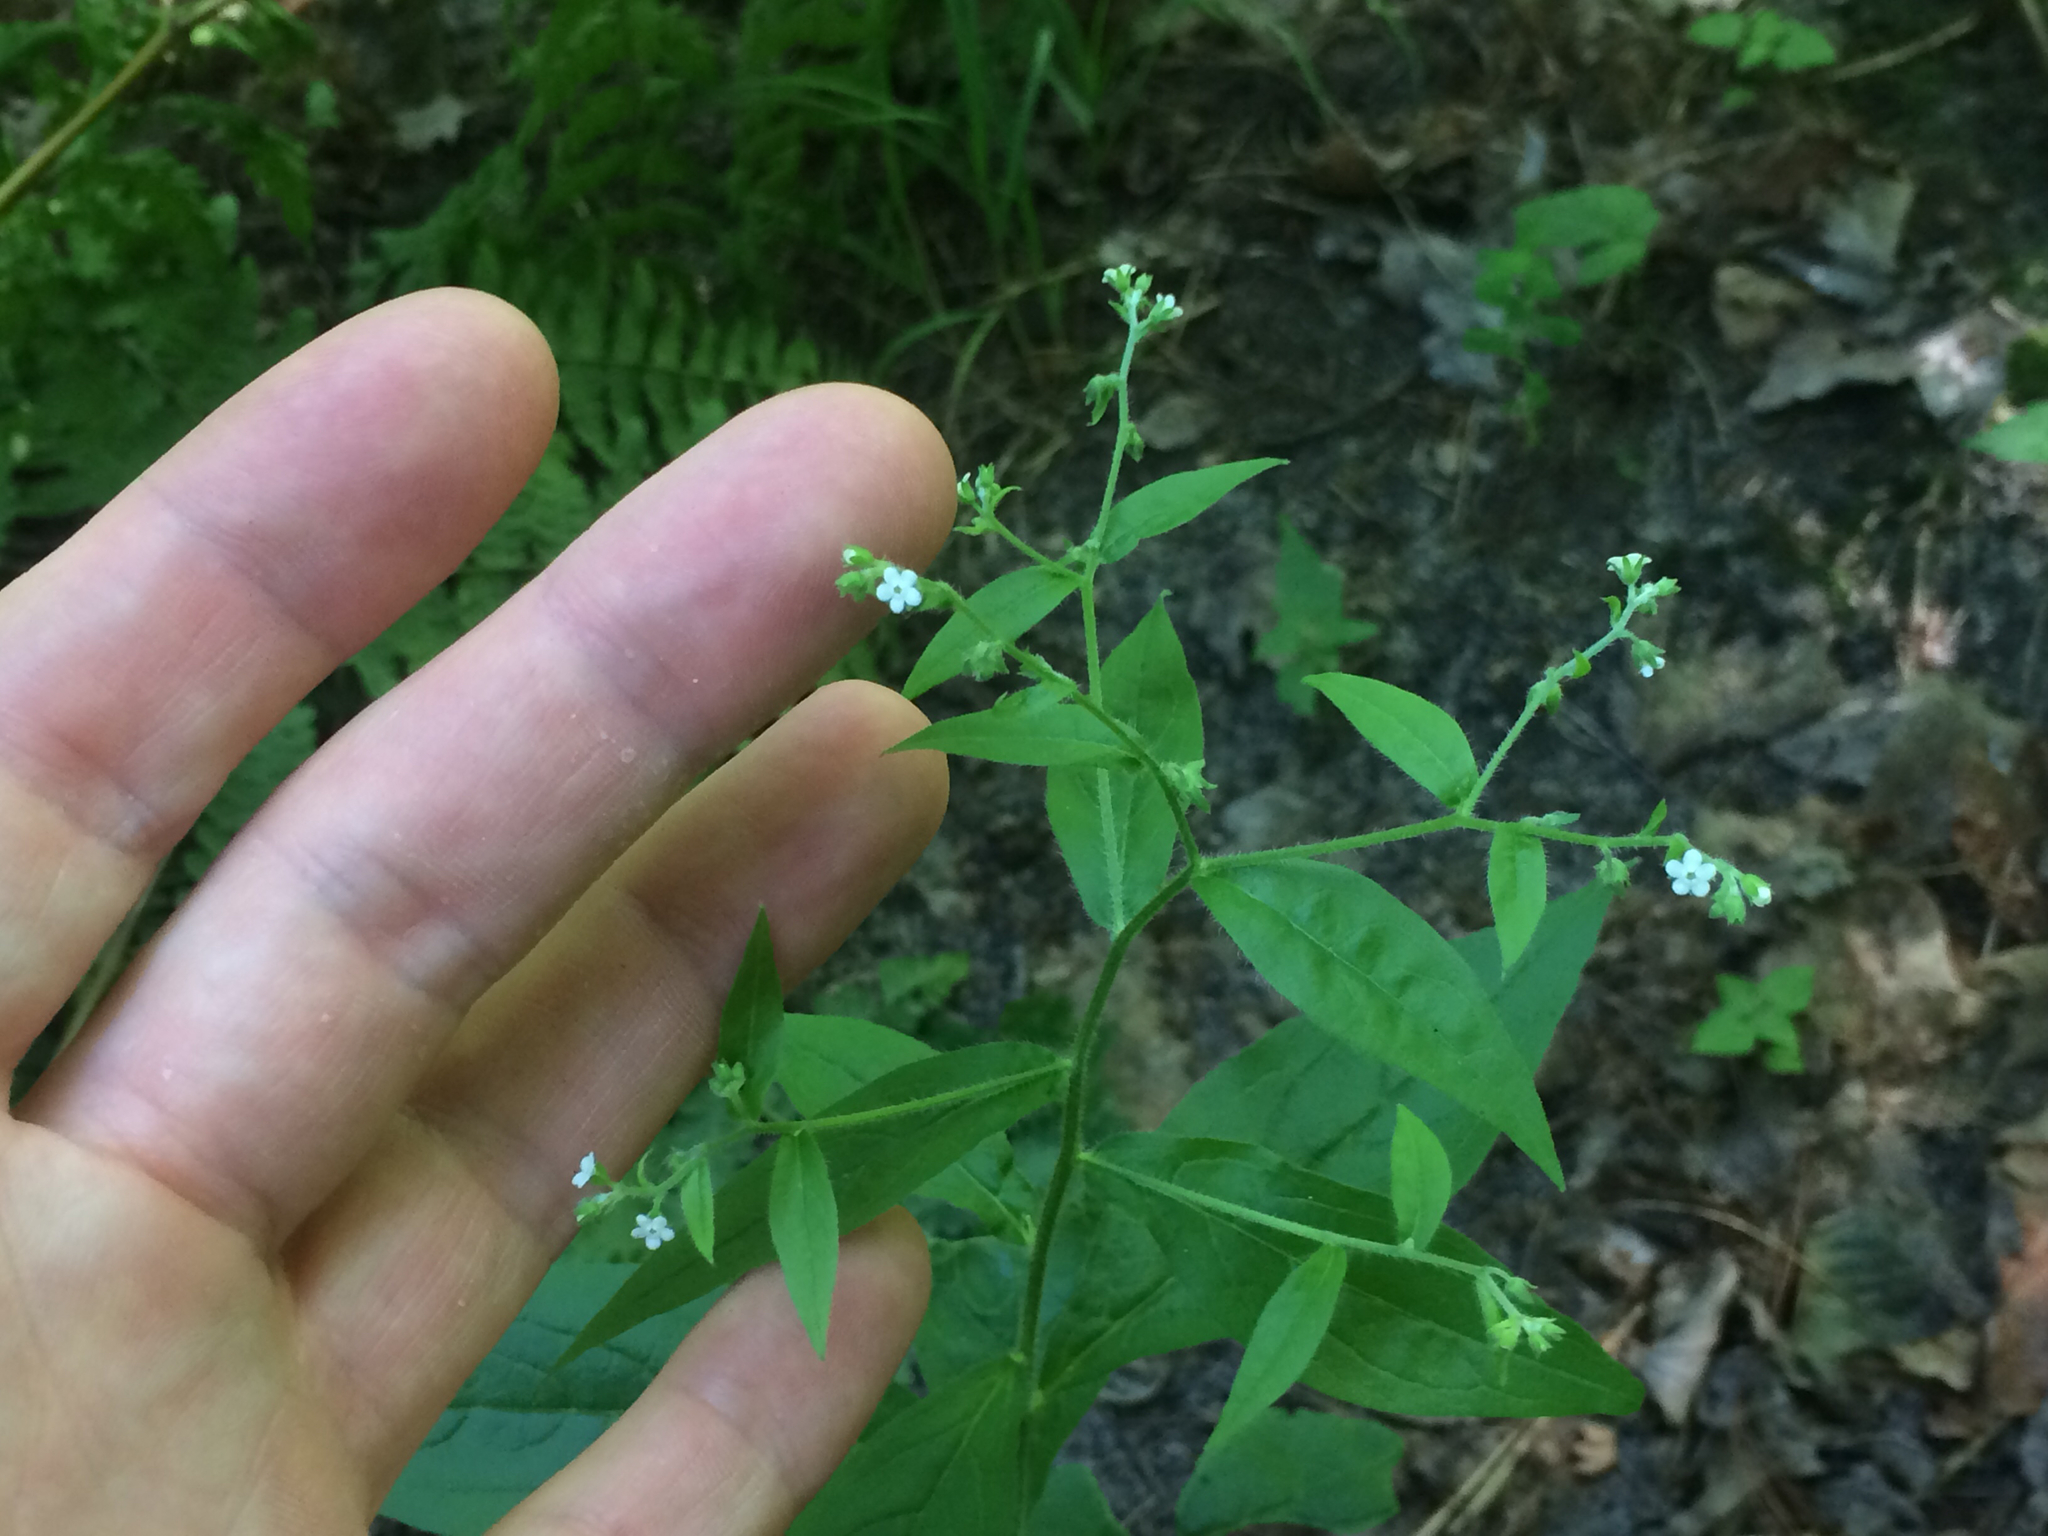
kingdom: Plantae
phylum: Tracheophyta
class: Magnoliopsida
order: Boraginales
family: Boraginaceae
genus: Hackelia
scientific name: Hackelia virginiana
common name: Beggar's-lice
